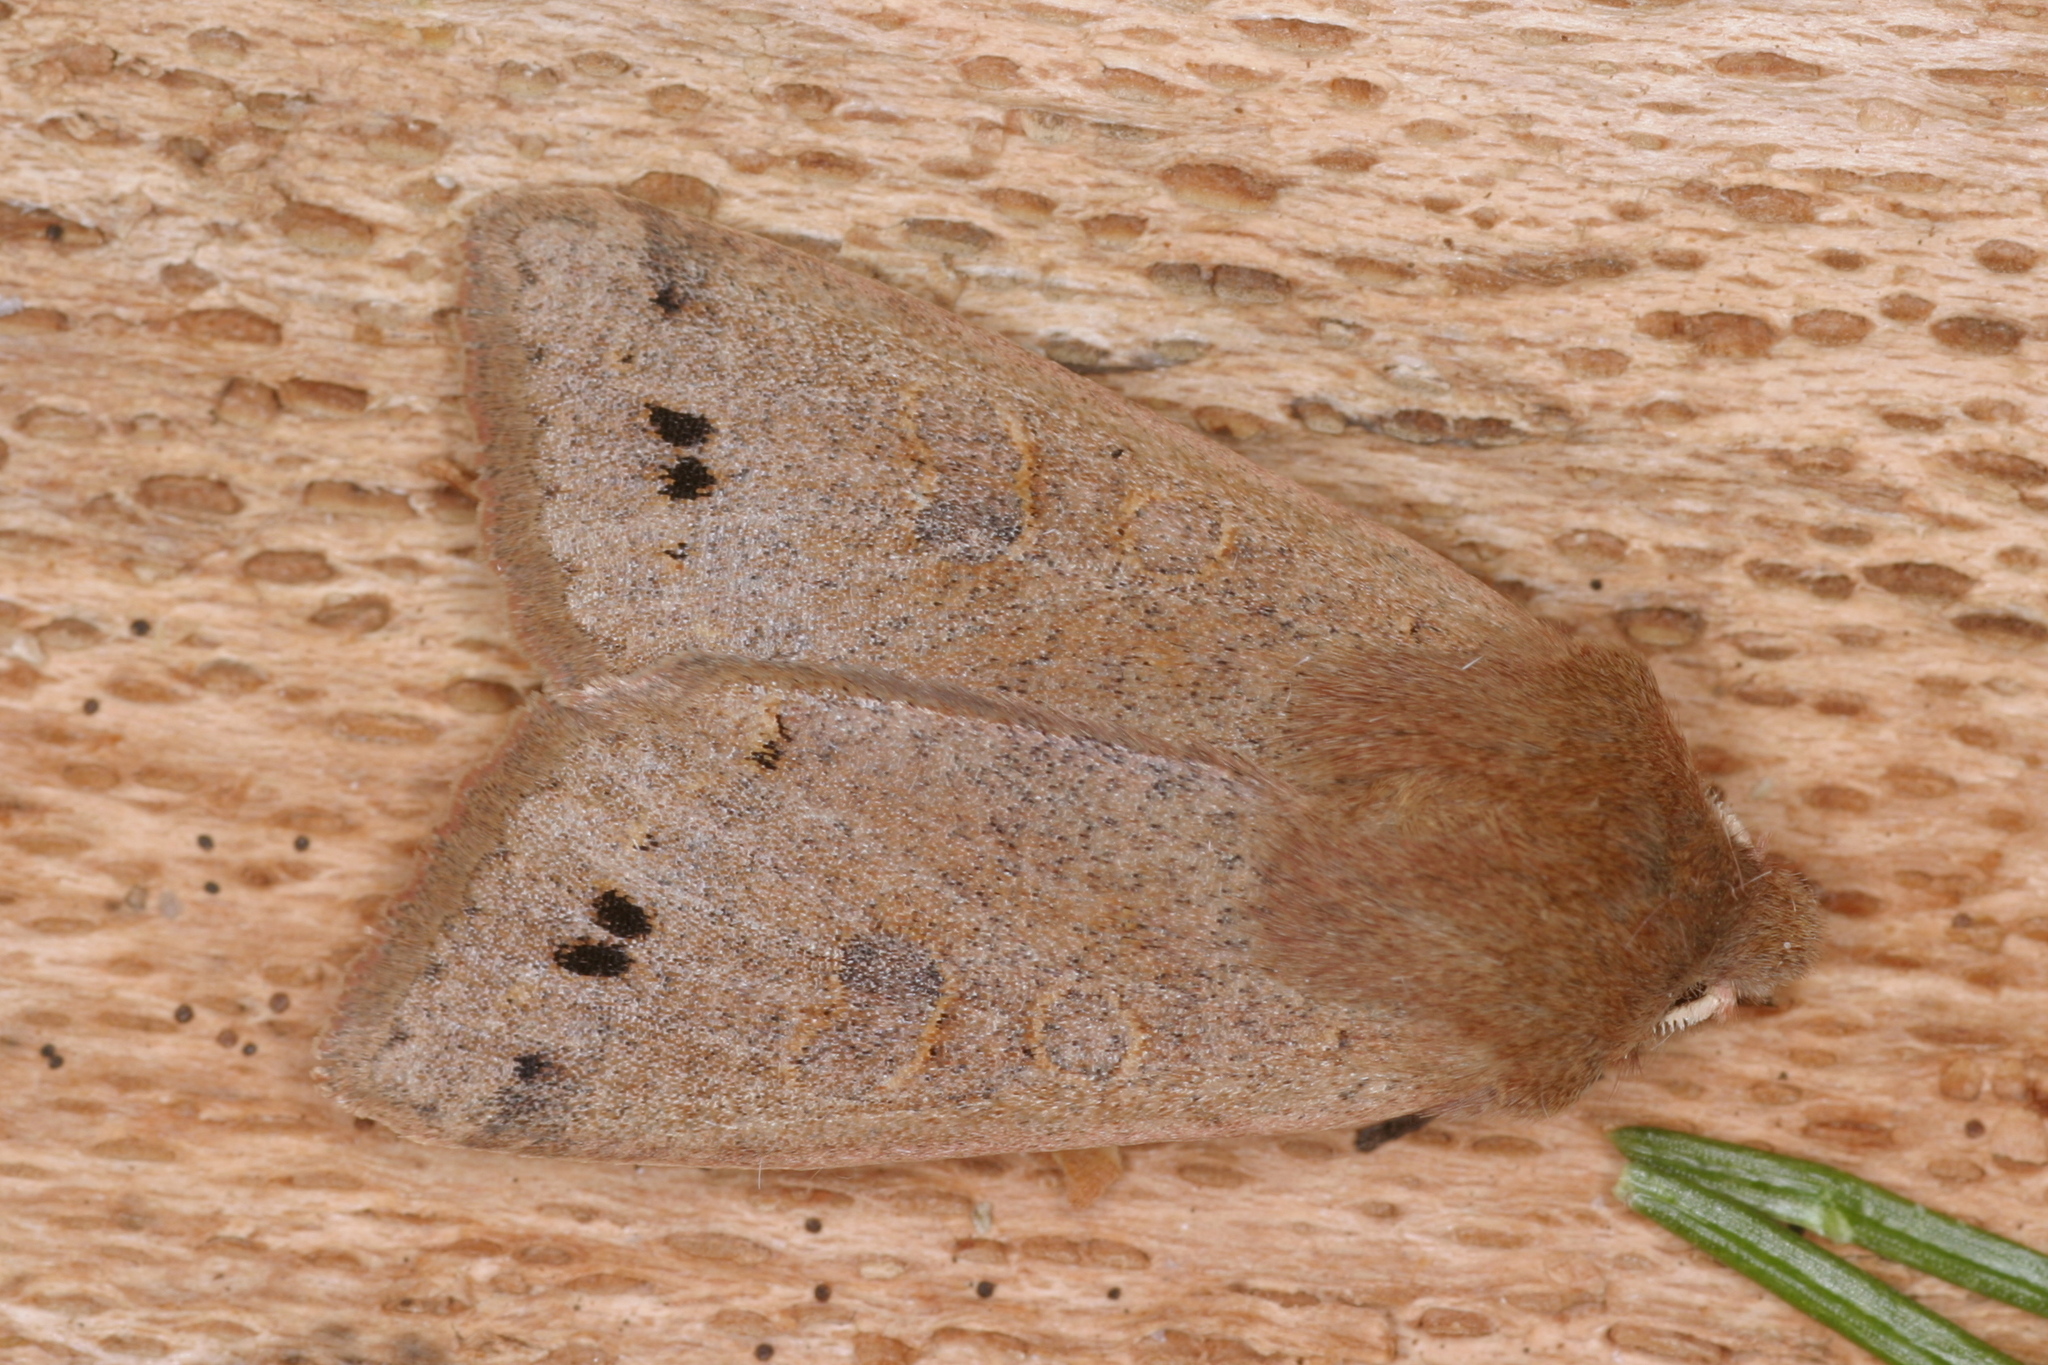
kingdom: Animalia
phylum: Arthropoda
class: Insecta
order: Lepidoptera
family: Noctuidae
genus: Anorthoa
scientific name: Anorthoa munda
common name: Twin-spotted quaker
